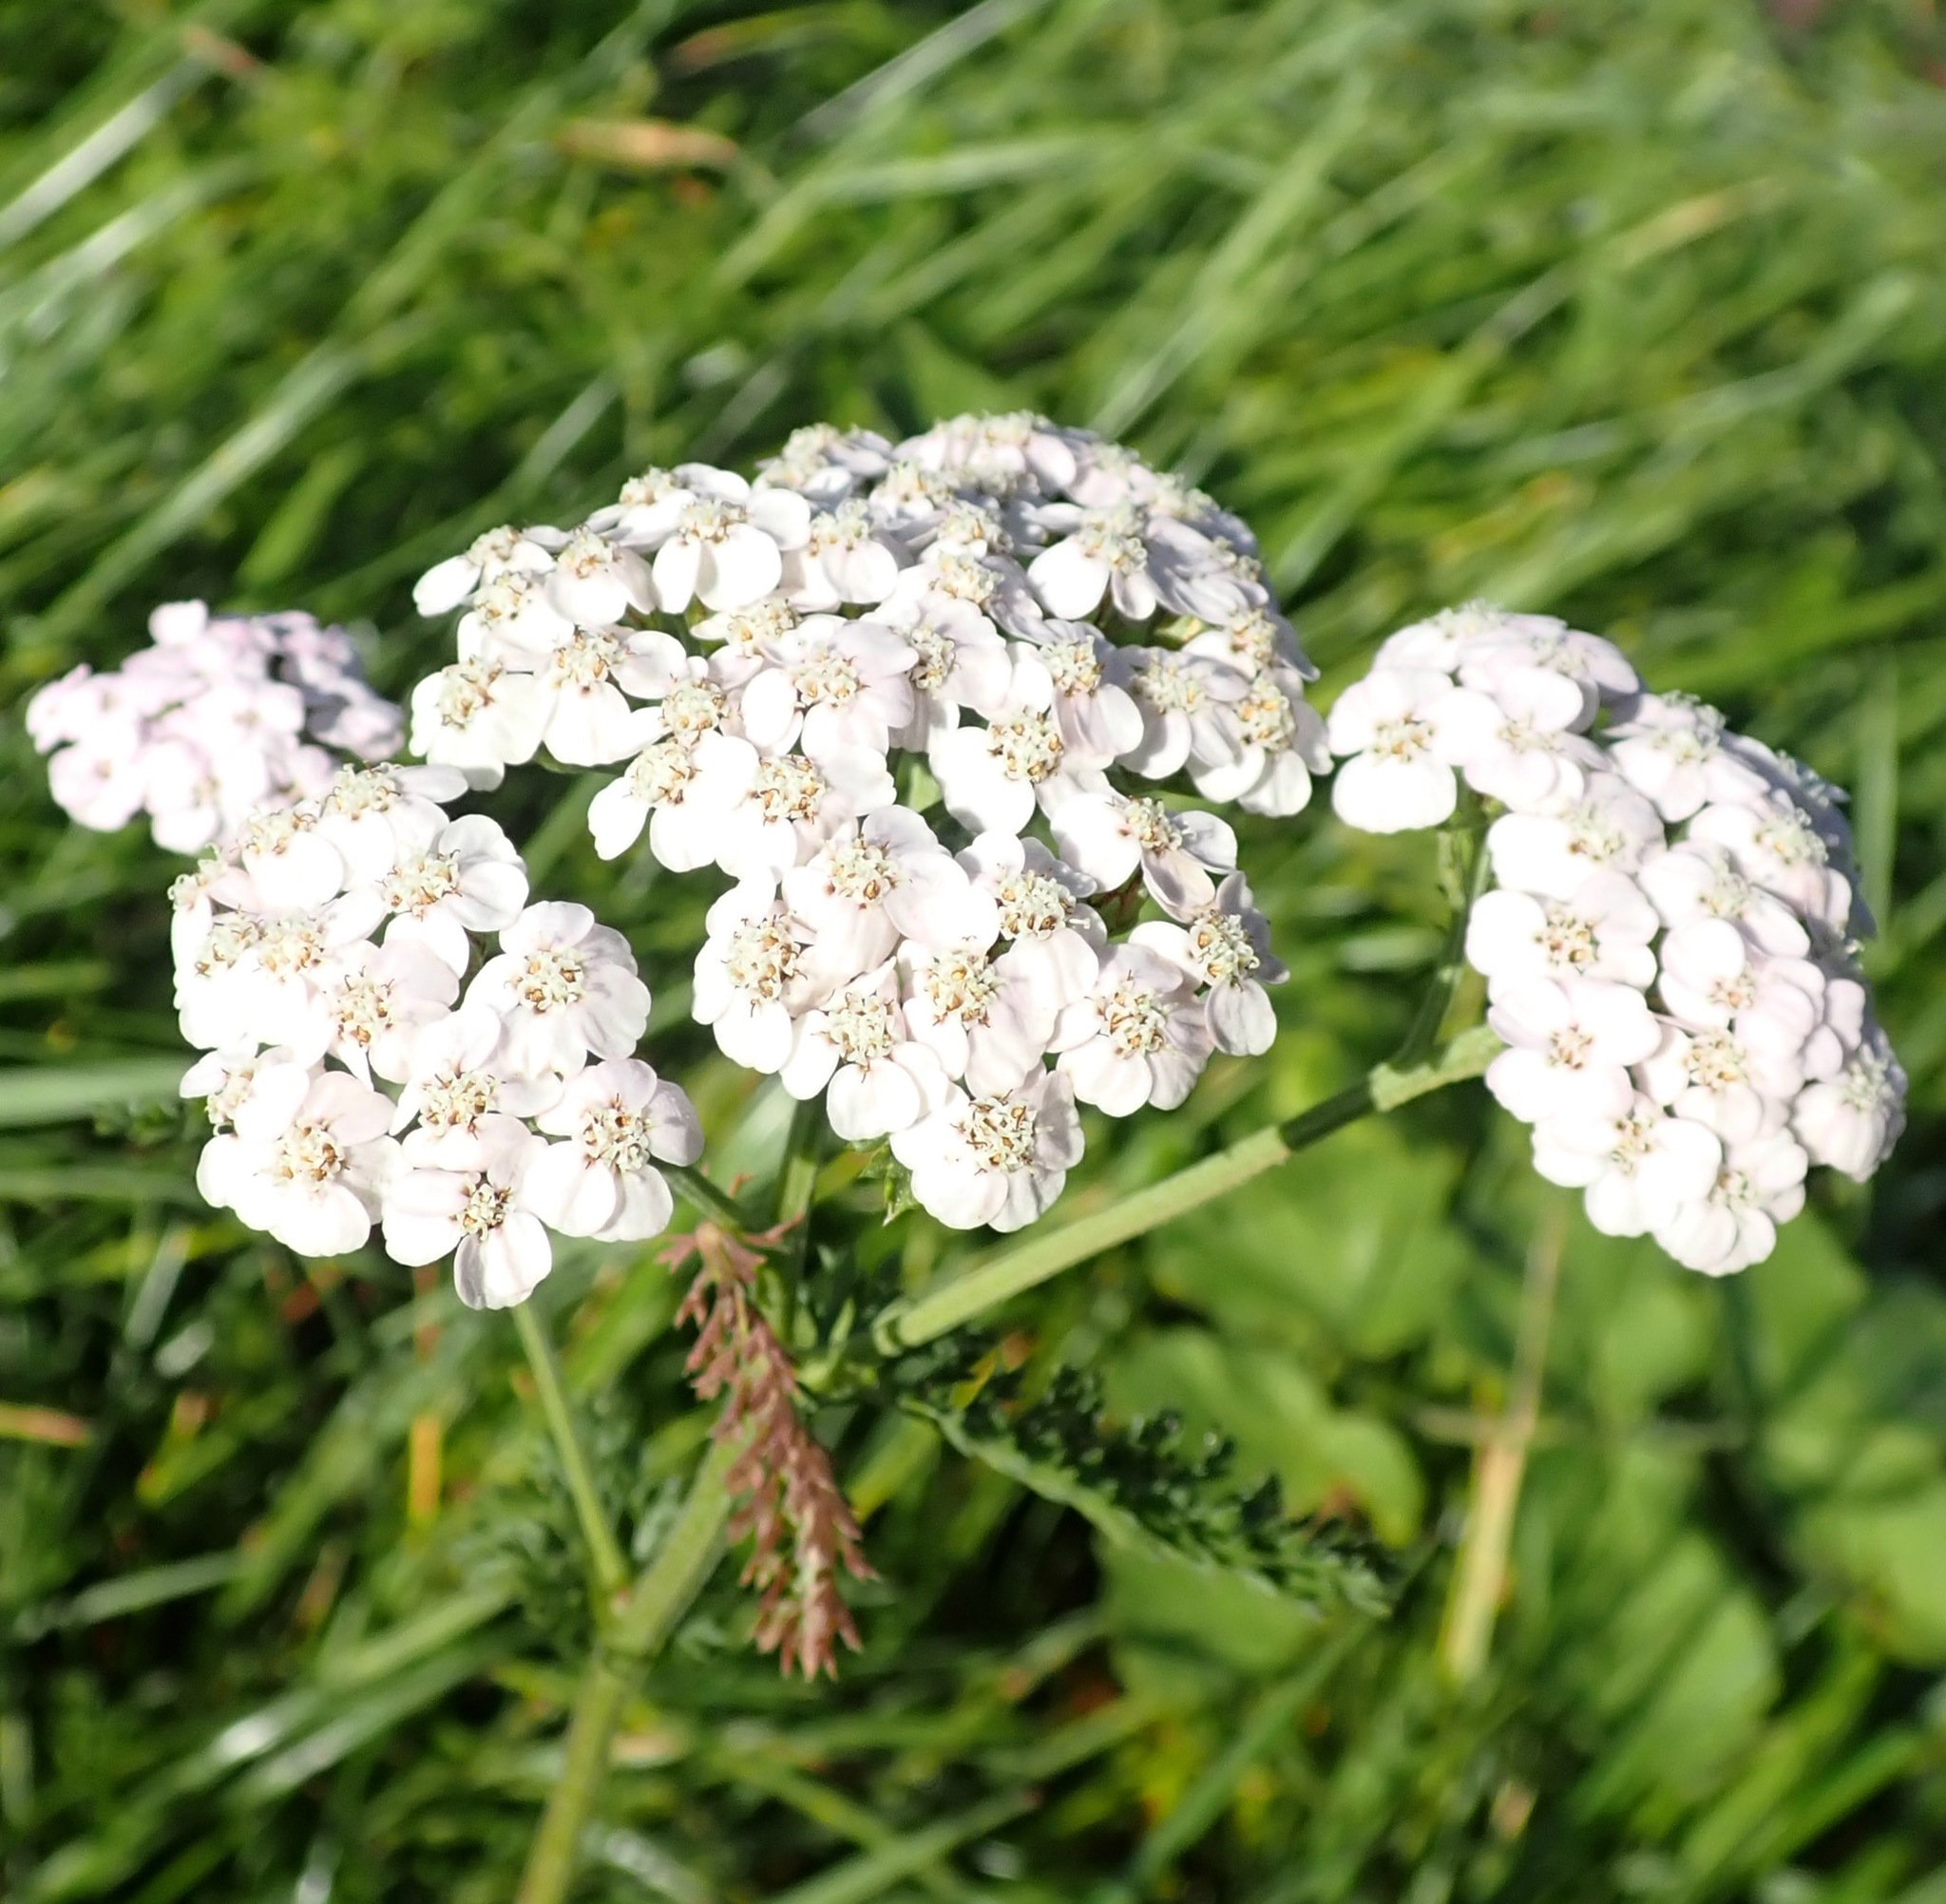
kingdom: Plantae
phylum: Tracheophyta
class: Magnoliopsida
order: Asterales
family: Asteraceae
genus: Achillea
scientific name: Achillea millefolium
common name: Yarrow
